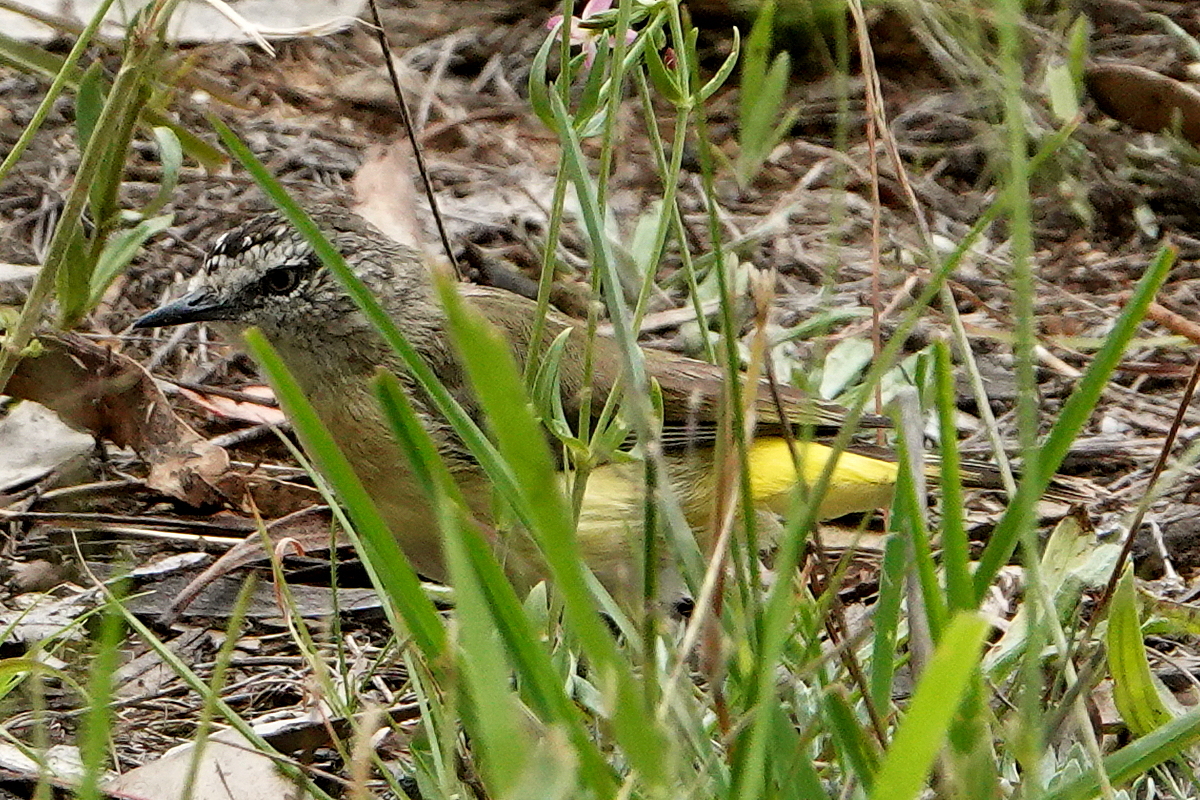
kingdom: Animalia
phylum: Chordata
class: Aves
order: Passeriformes
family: Acanthizidae
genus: Acanthiza
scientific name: Acanthiza chrysorrhoa
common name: Yellow-rumped thornbill
